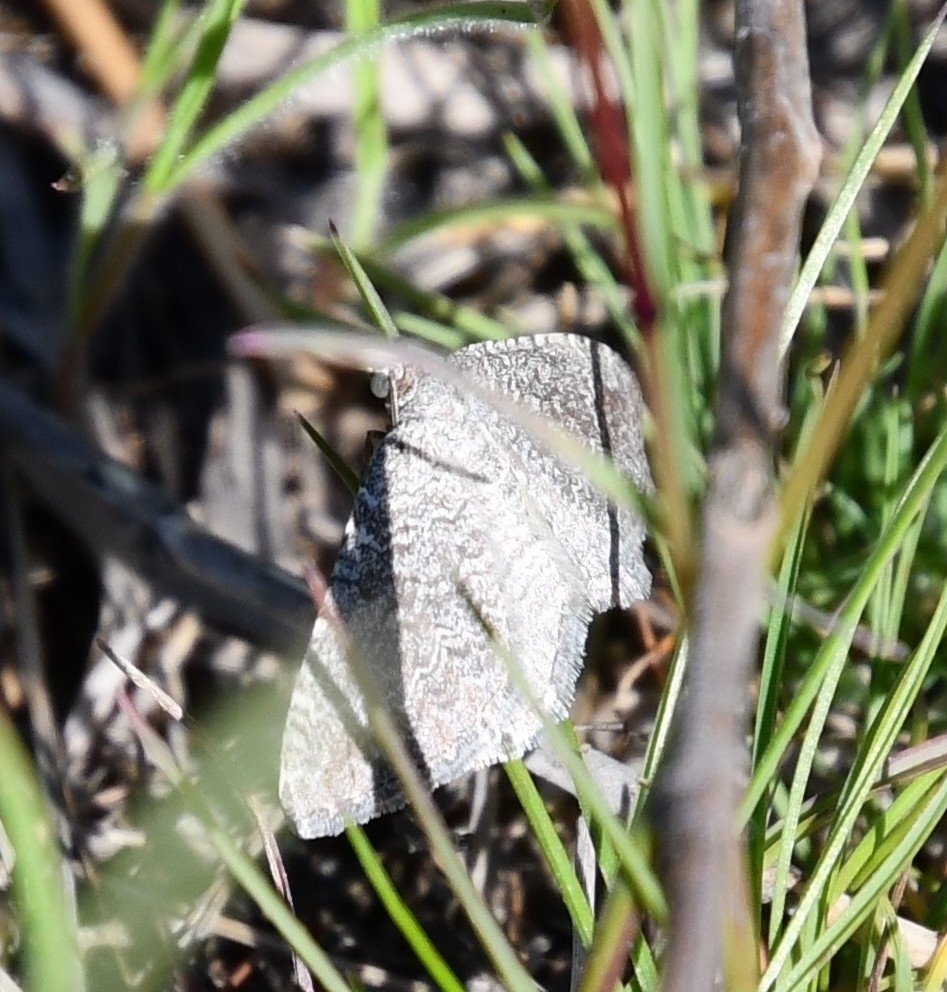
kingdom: Animalia
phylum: Arthropoda
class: Insecta
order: Lepidoptera
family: Geometridae
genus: Cataclysme
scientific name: Cataclysme riguata
